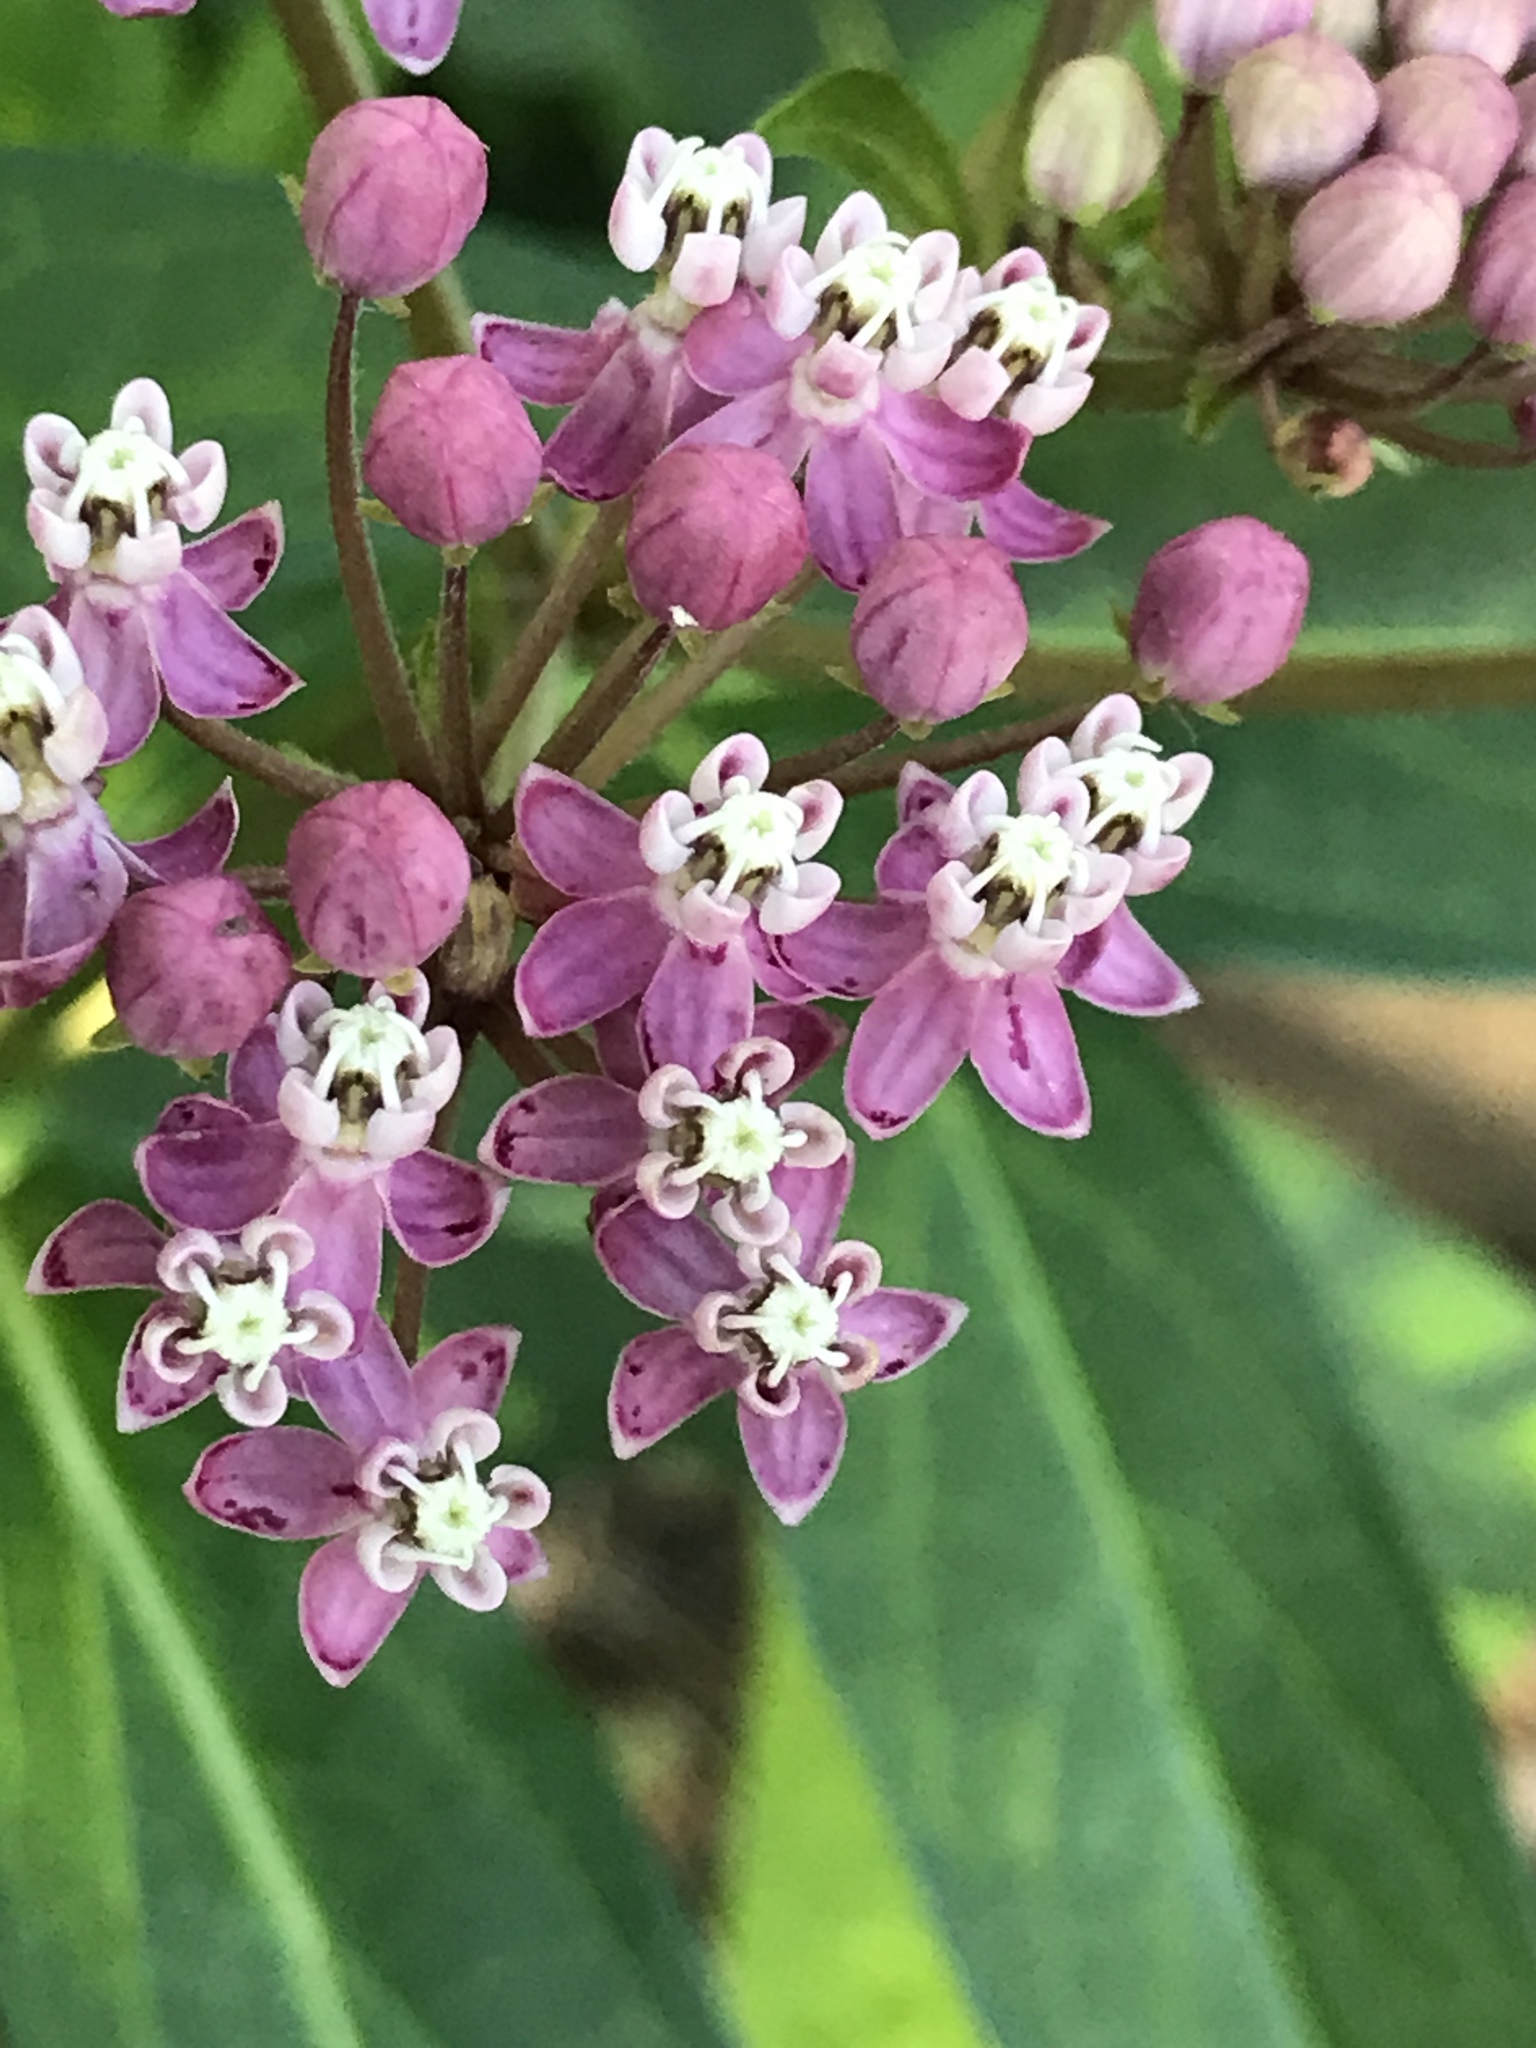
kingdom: Plantae
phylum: Tracheophyta
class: Magnoliopsida
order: Gentianales
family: Apocynaceae
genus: Asclepias
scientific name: Asclepias incarnata
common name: Swamp milkweed
